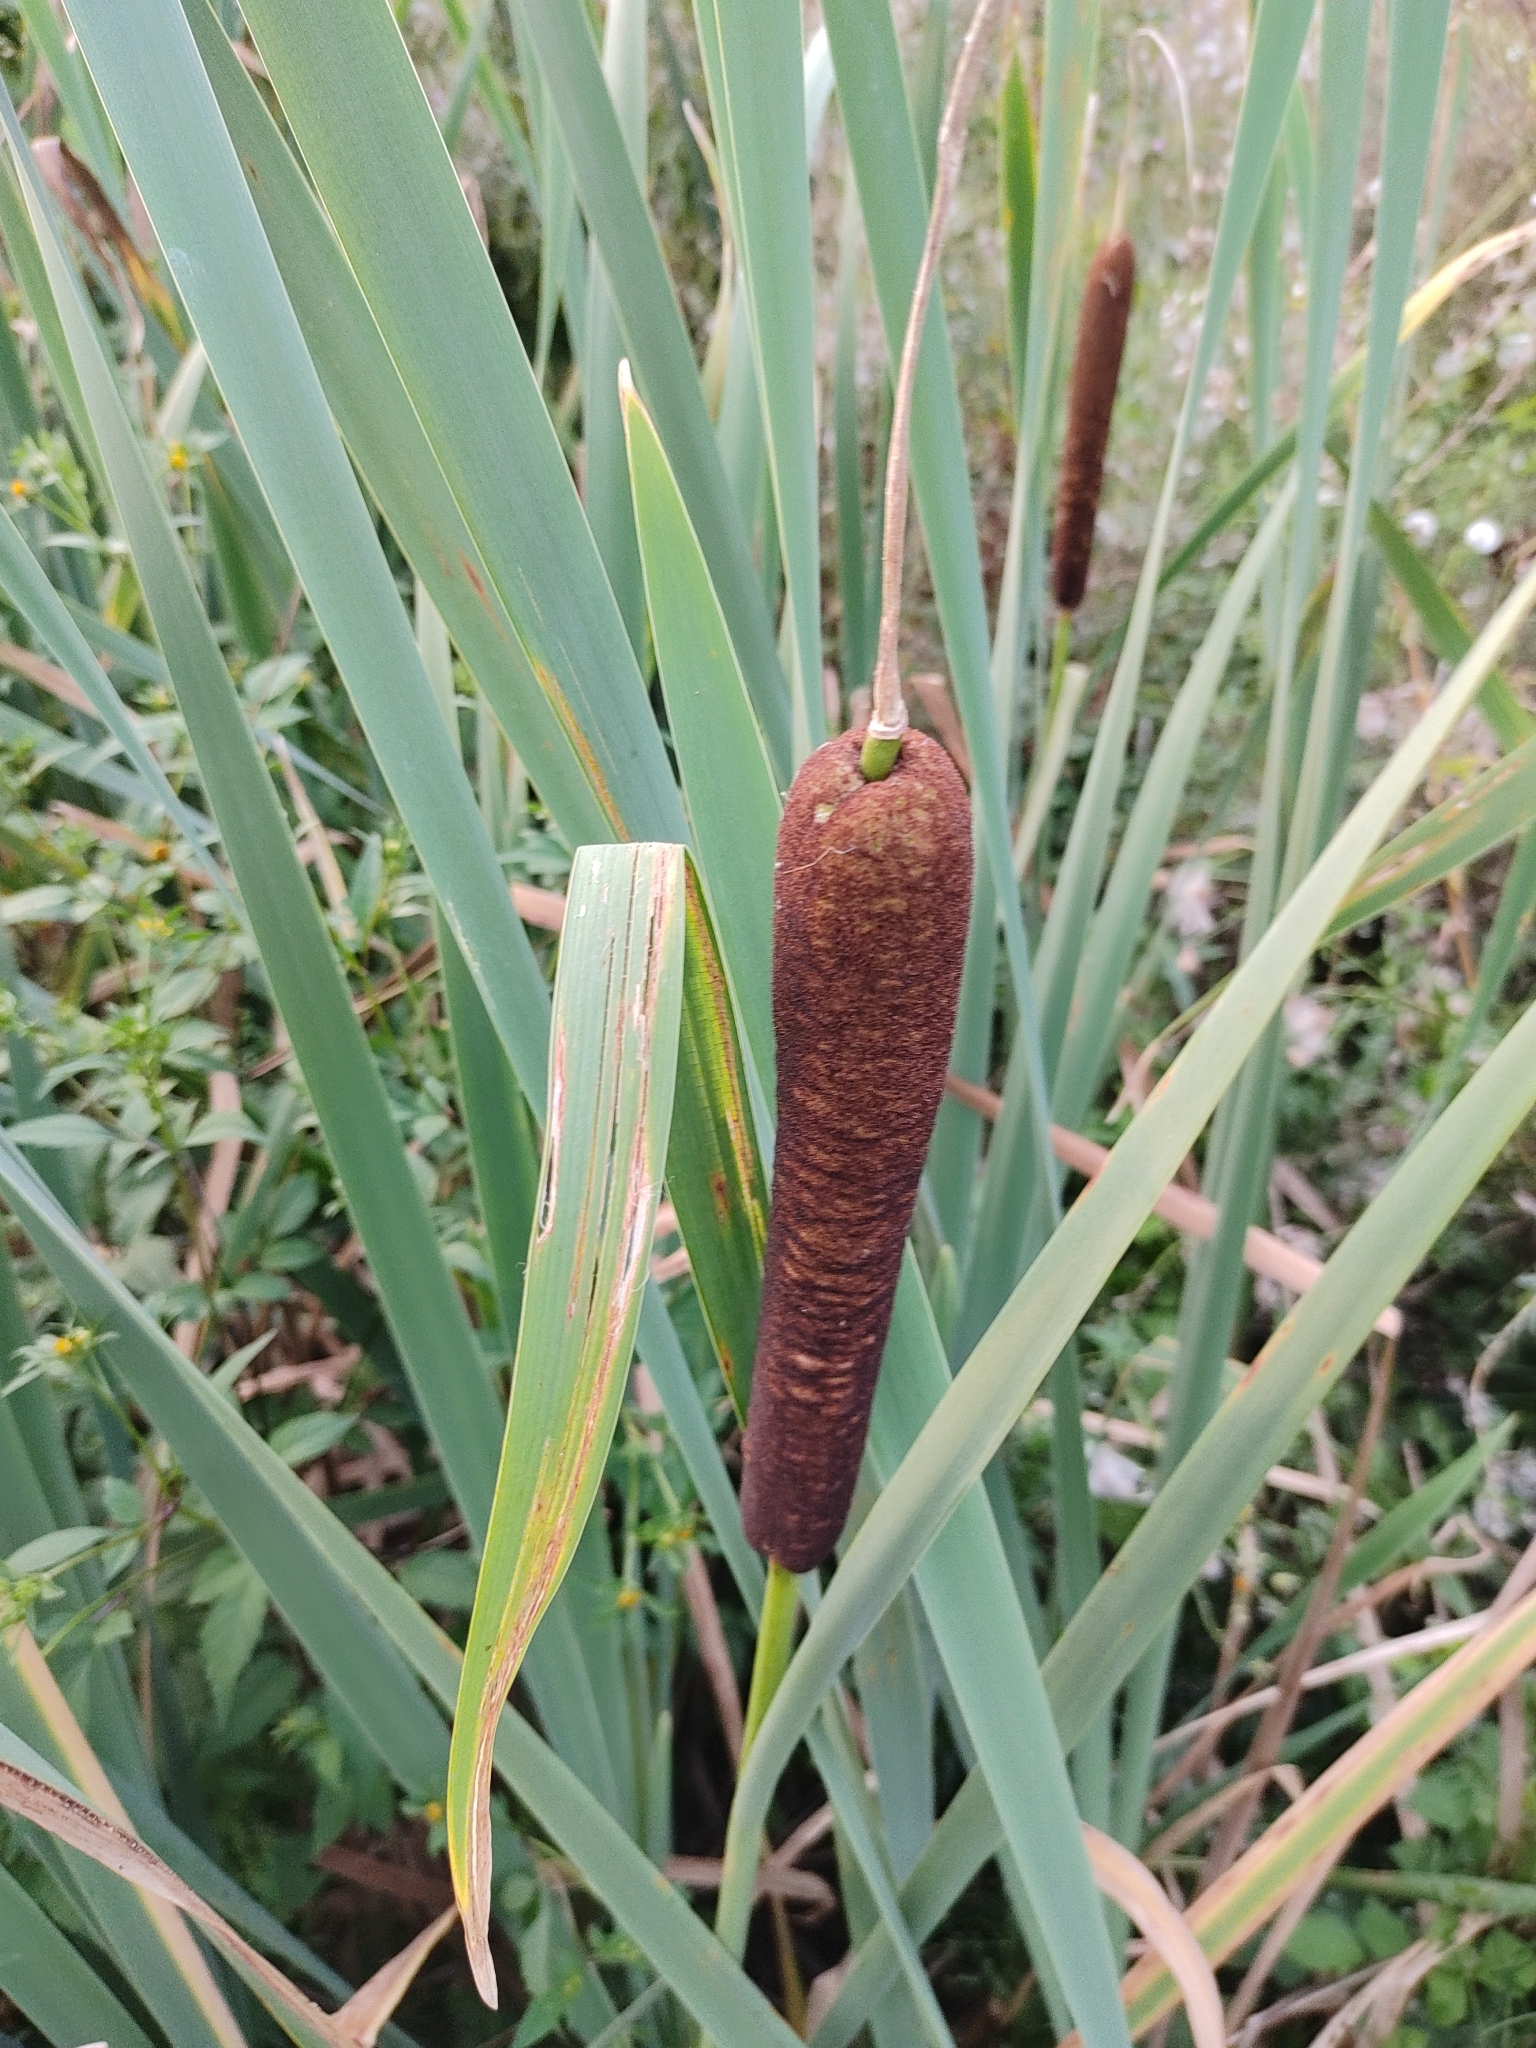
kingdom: Plantae
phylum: Tracheophyta
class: Liliopsida
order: Poales
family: Typhaceae
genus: Typha
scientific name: Typha latifolia
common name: Broadleaf cattail
